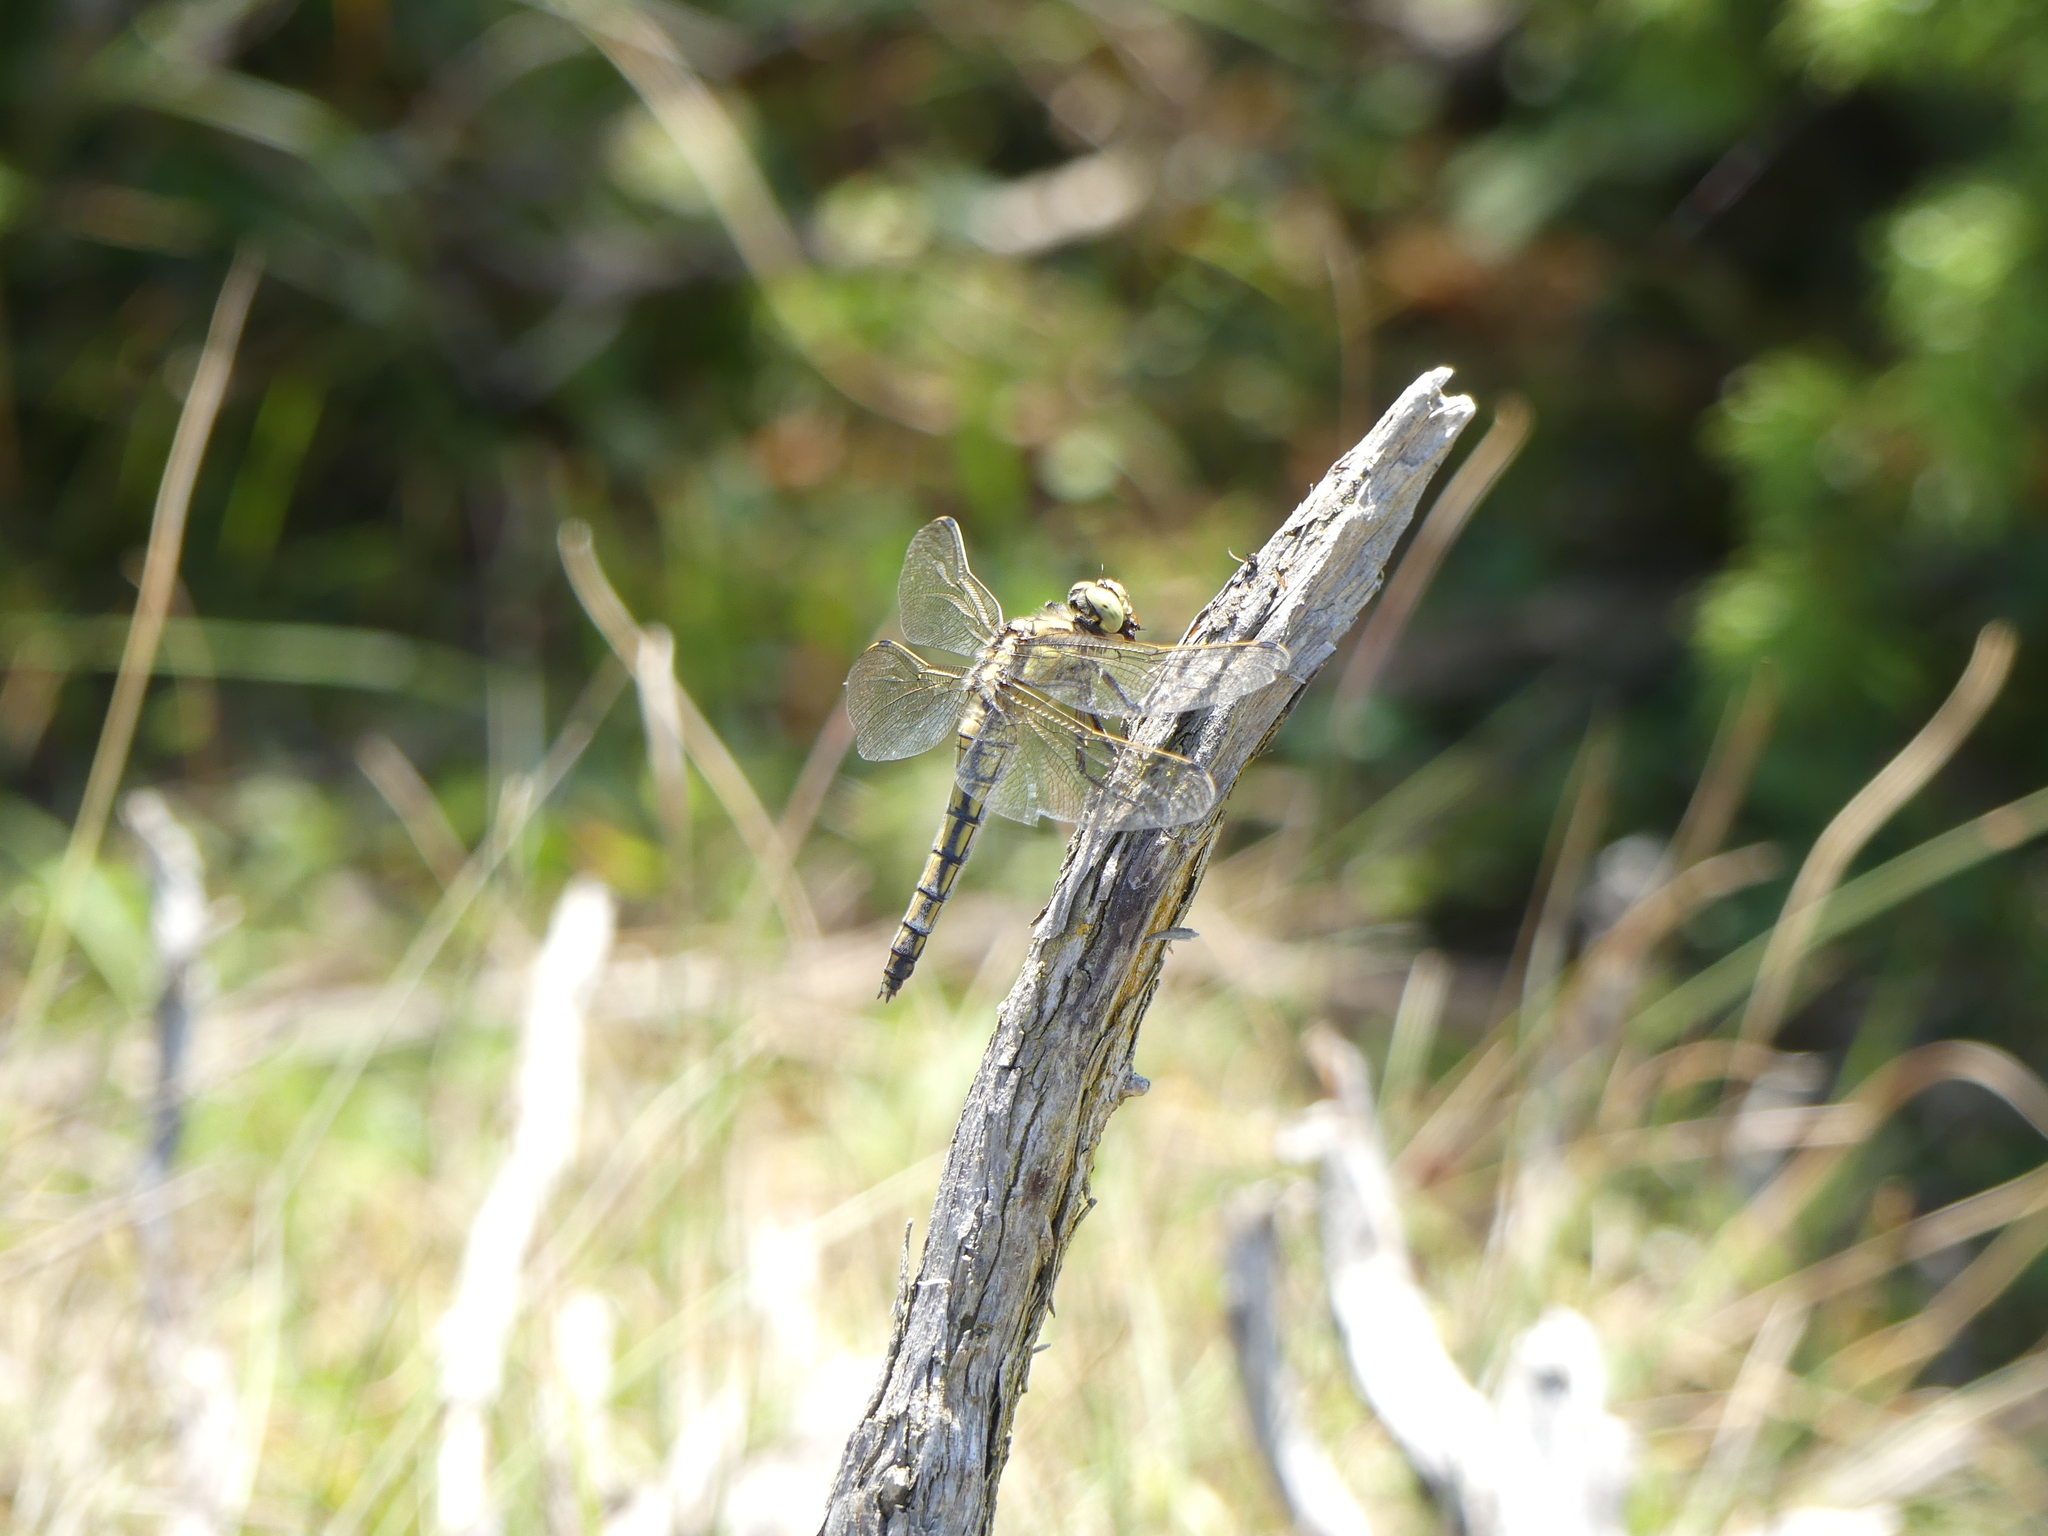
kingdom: Animalia
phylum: Arthropoda
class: Insecta
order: Odonata
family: Libellulidae
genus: Orthetrum
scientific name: Orthetrum cancellatum
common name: Black-tailed skimmer
